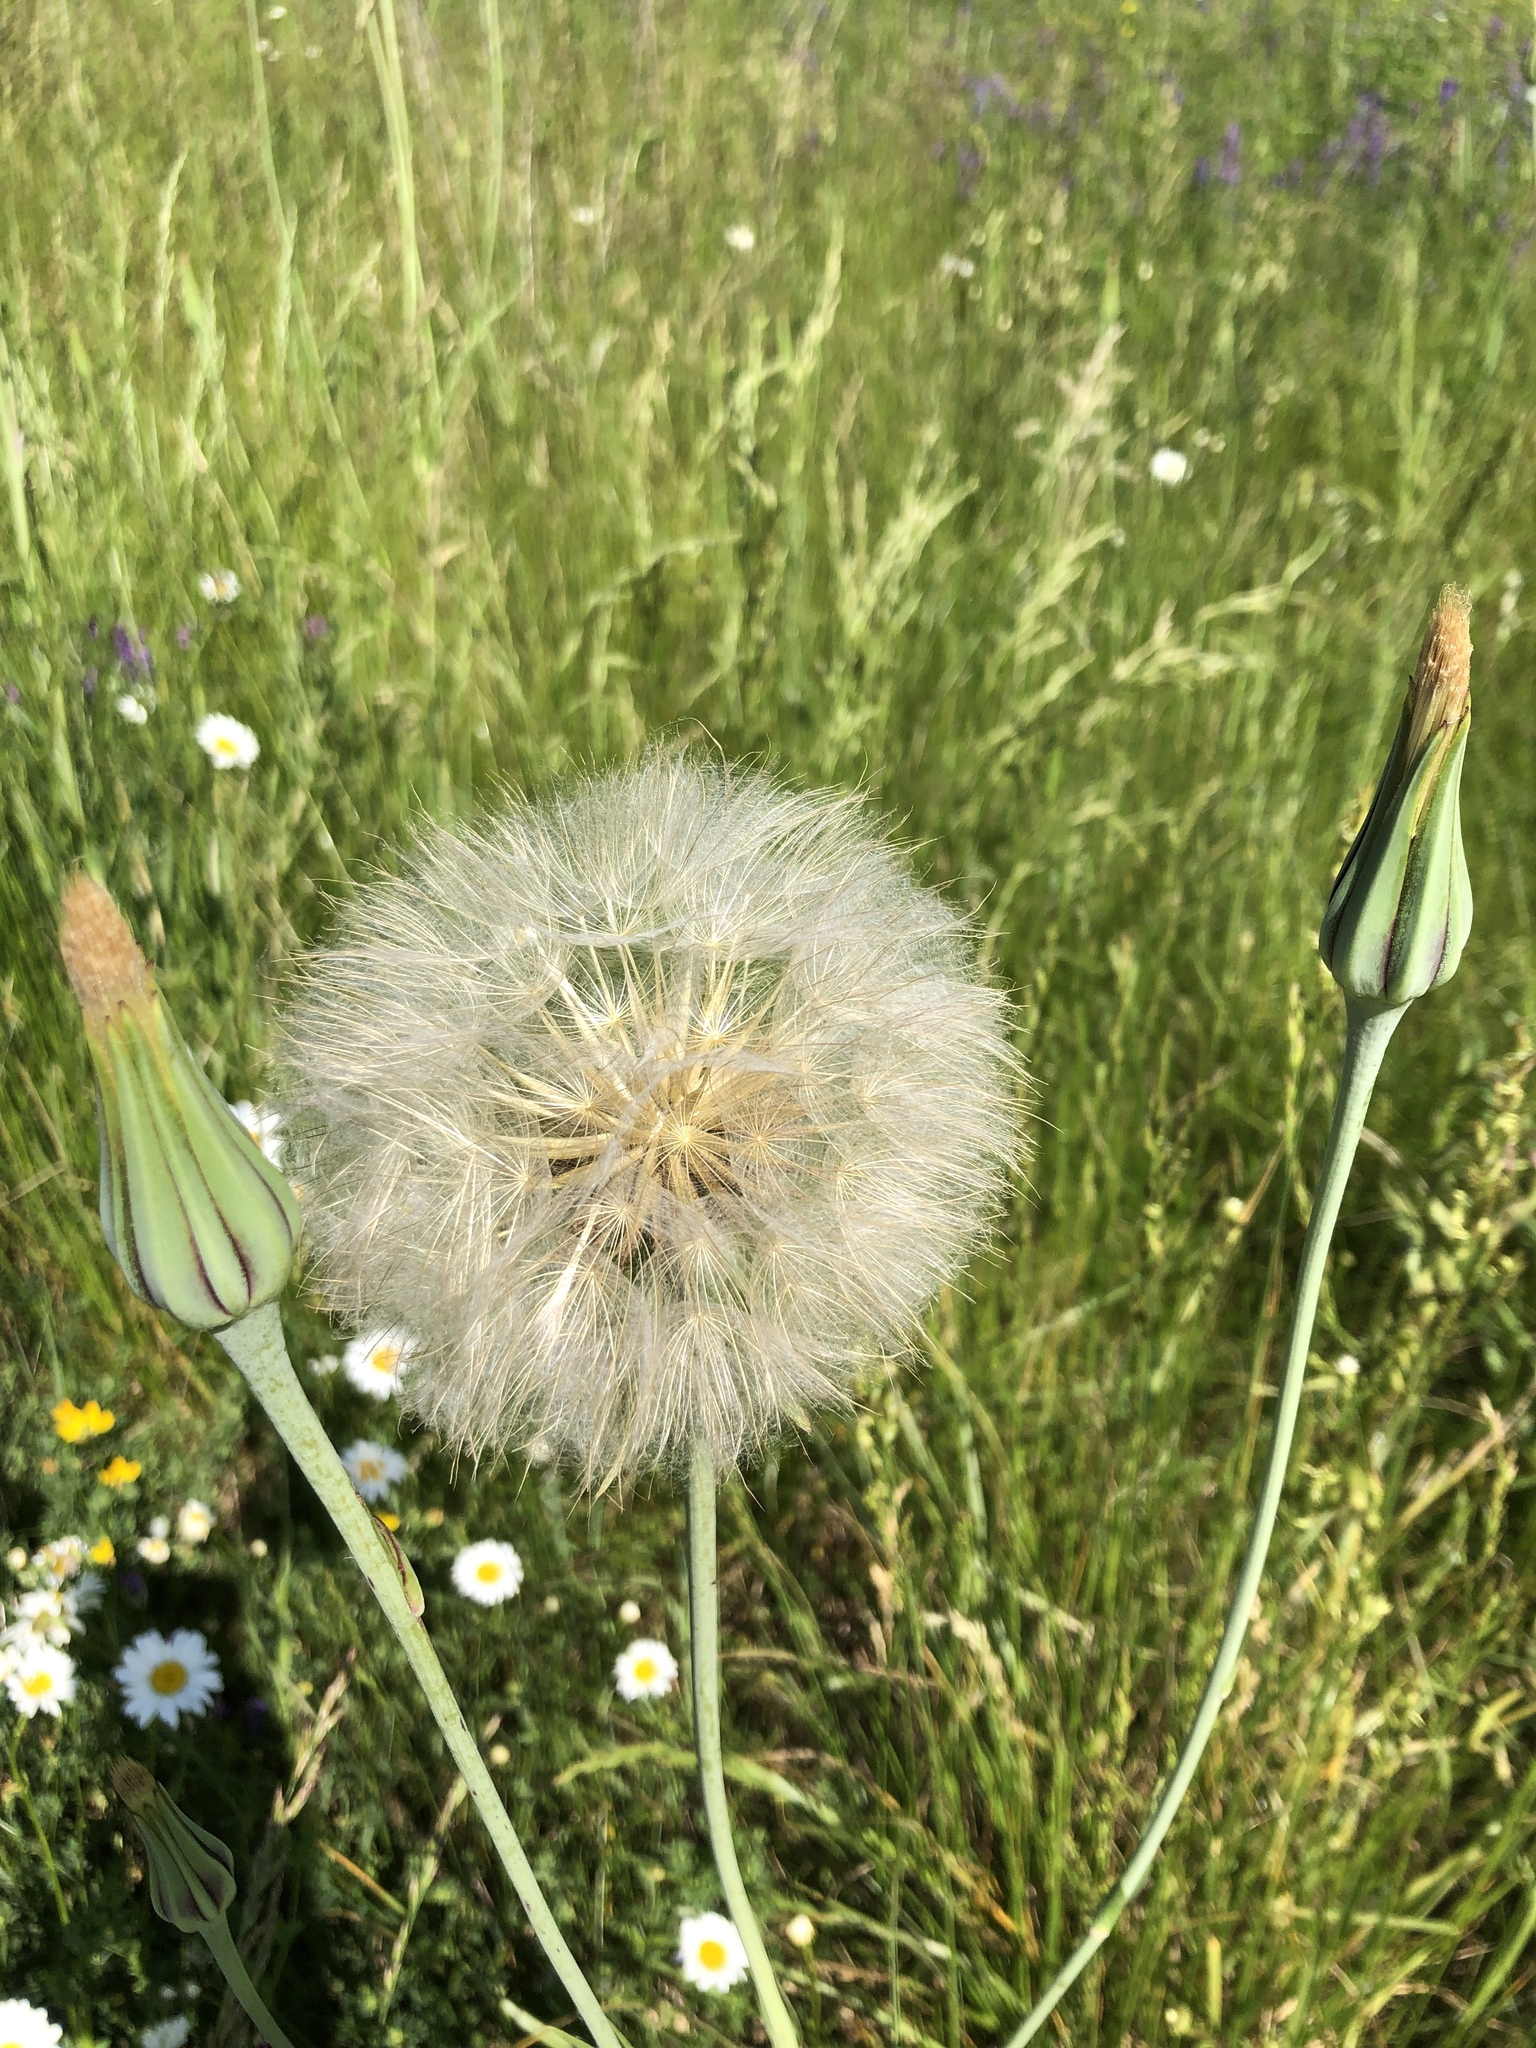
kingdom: Plantae
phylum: Tracheophyta
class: Magnoliopsida
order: Asterales
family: Asteraceae
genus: Tragopogon
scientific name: Tragopogon pratensis
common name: Goat's-beard
